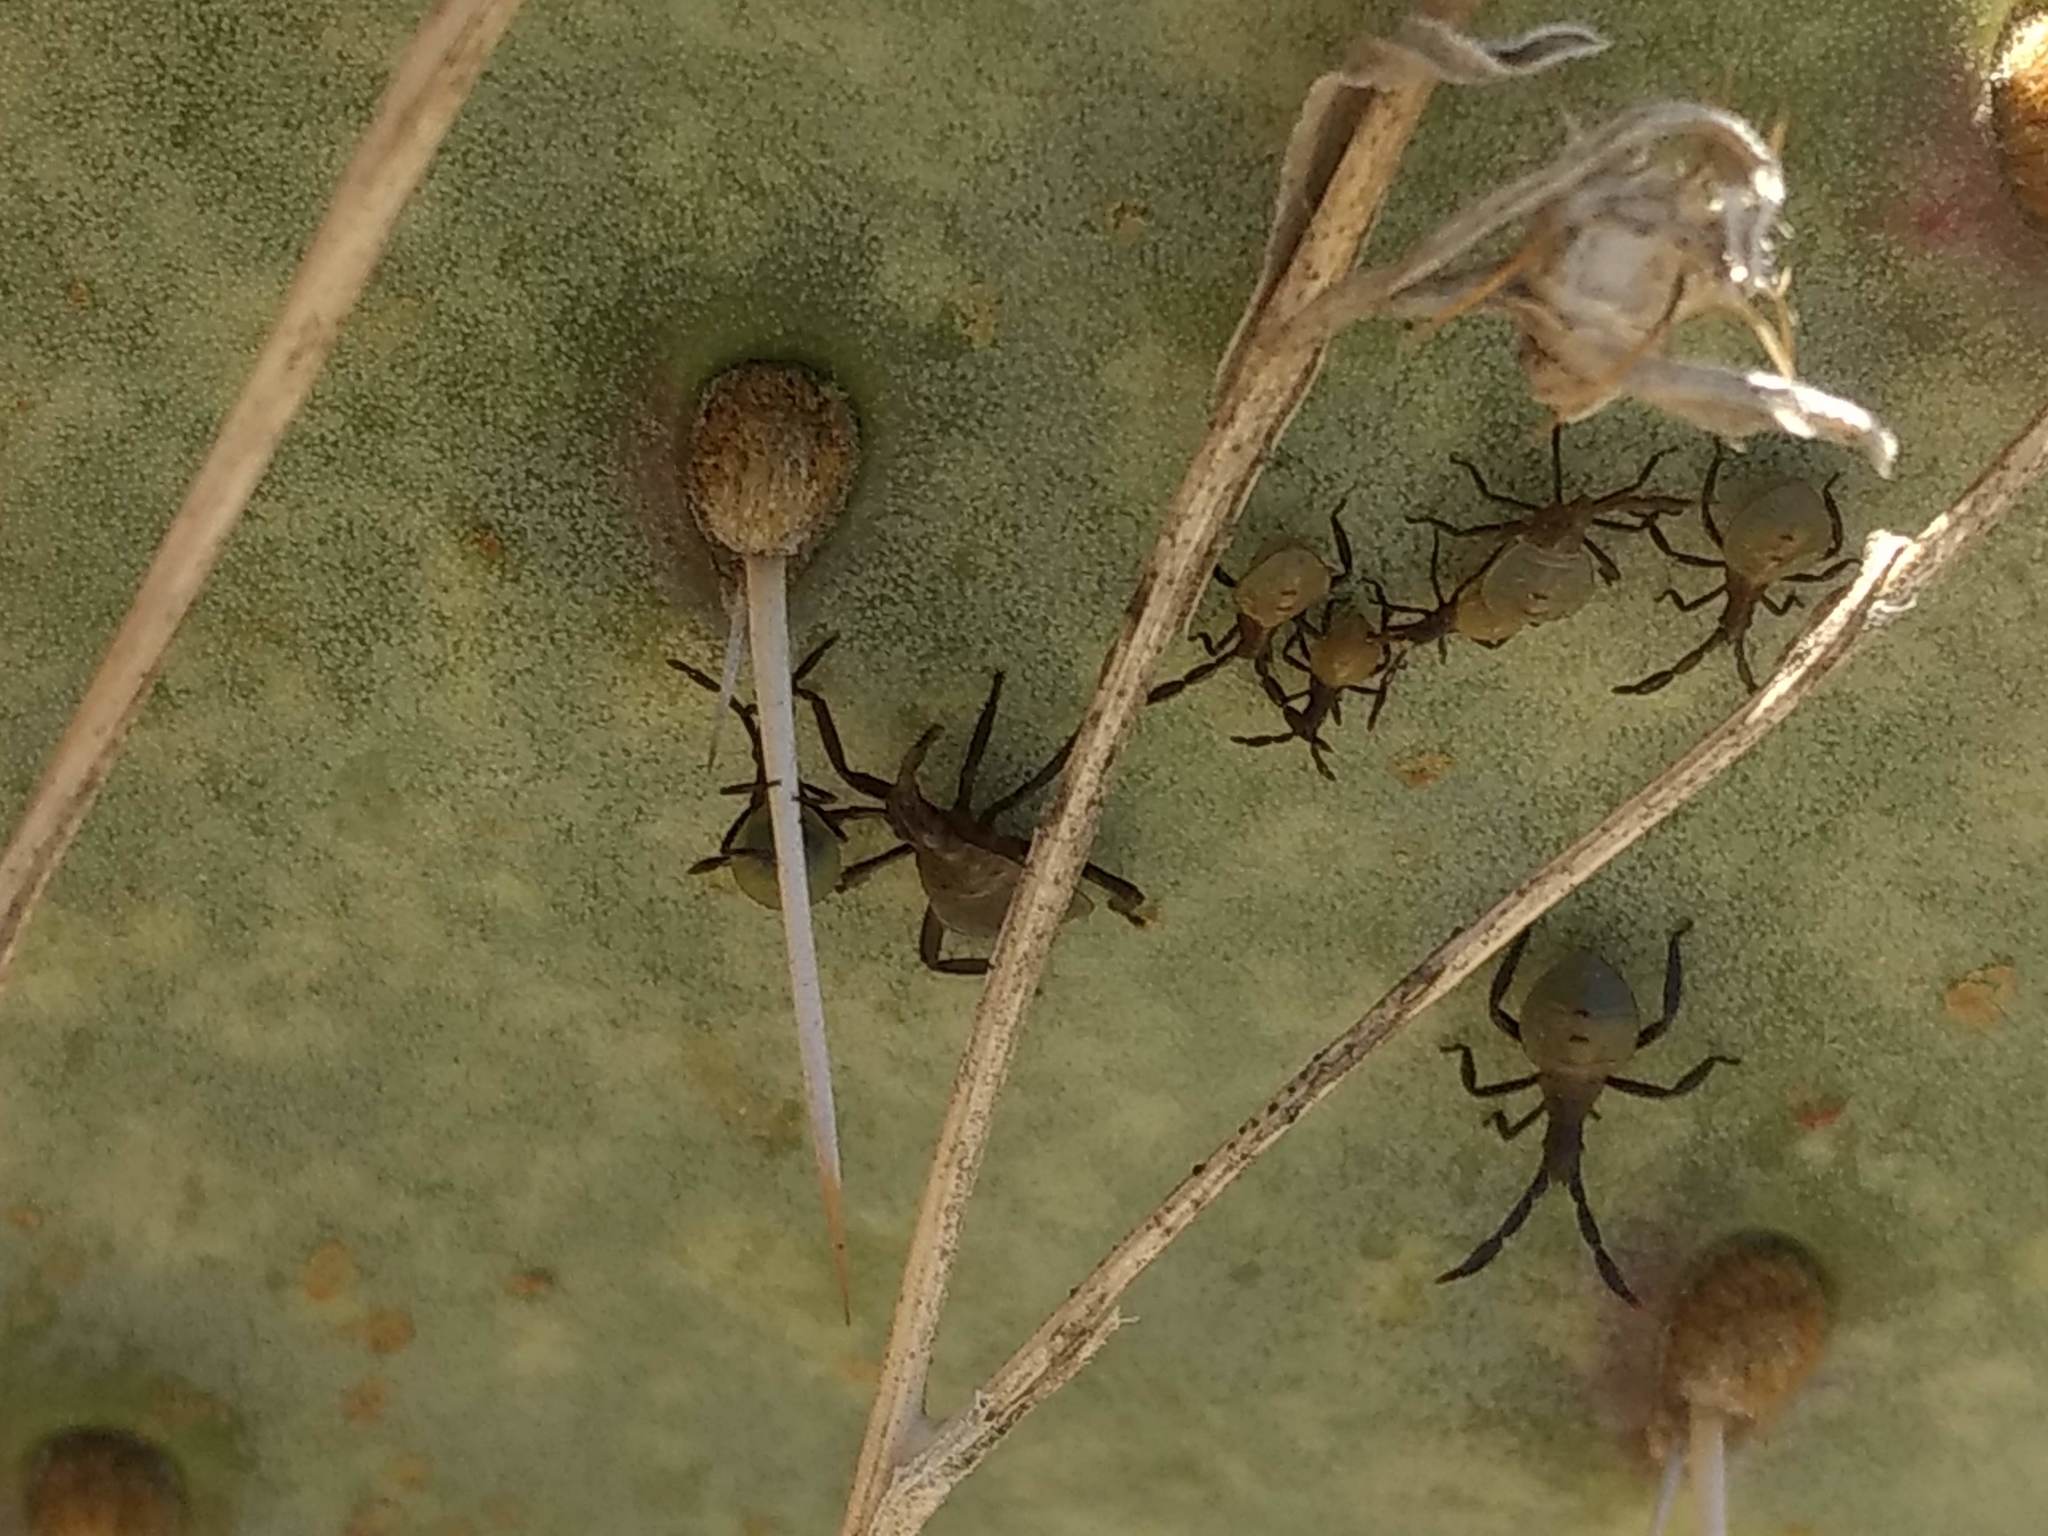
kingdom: Animalia
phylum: Arthropoda
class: Insecta
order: Hemiptera
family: Coreidae
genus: Chelinidea
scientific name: Chelinidea vittiger
